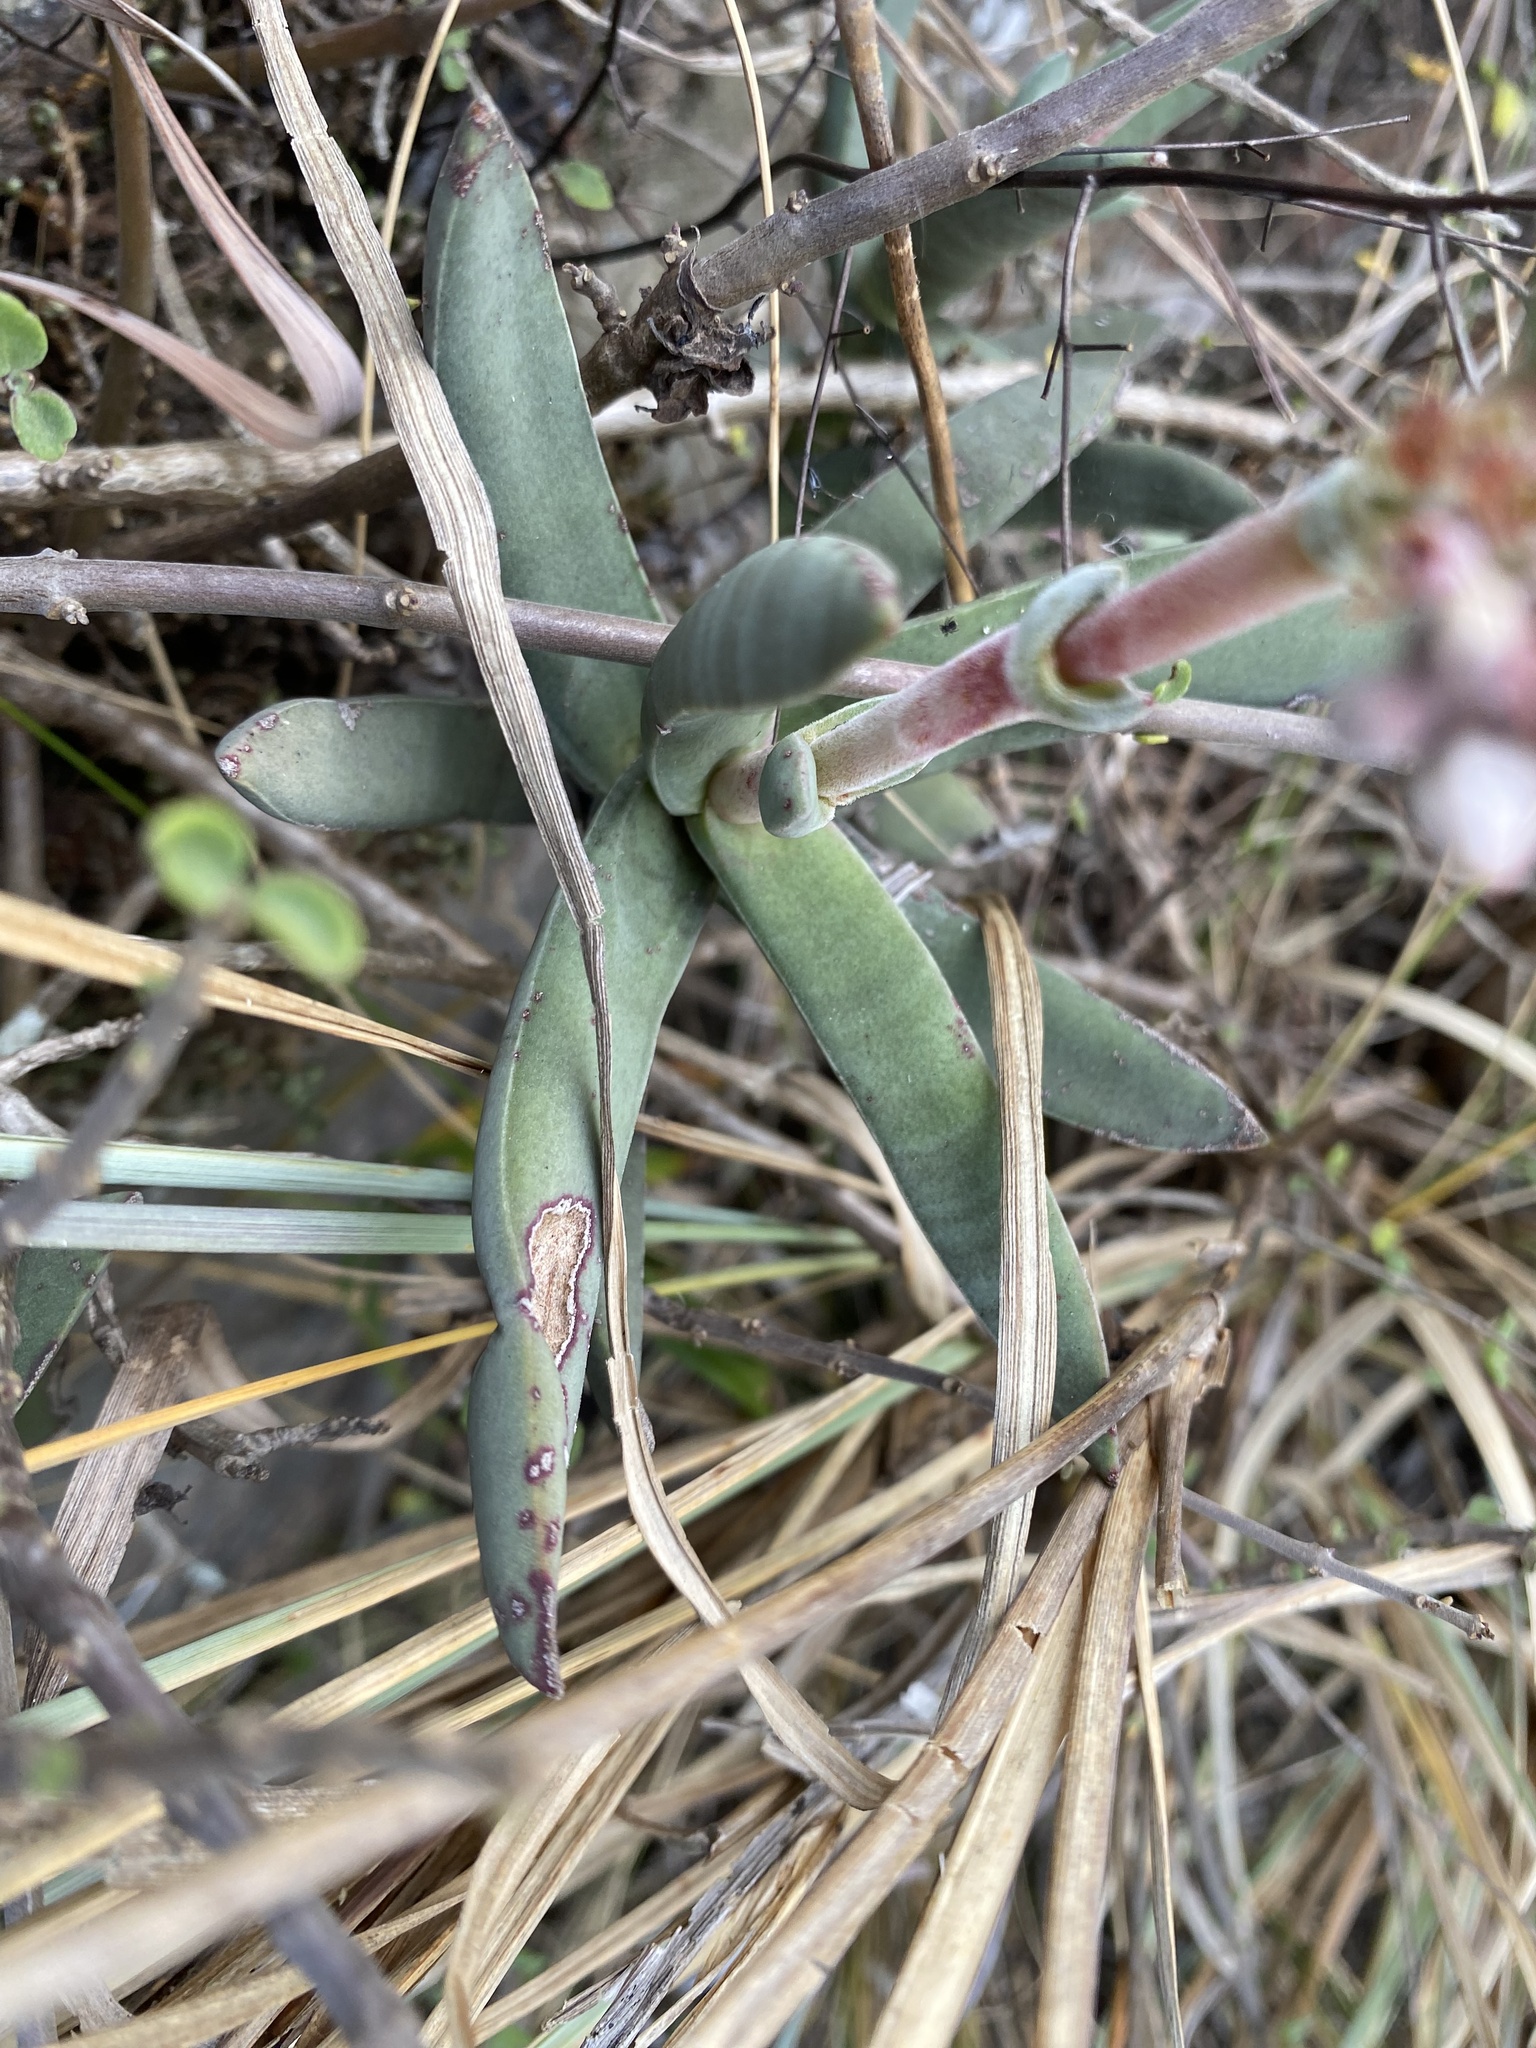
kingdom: Plantae
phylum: Tracheophyta
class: Magnoliopsida
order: Saxifragales
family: Crassulaceae
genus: Crassula
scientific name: Crassula perfoliata
